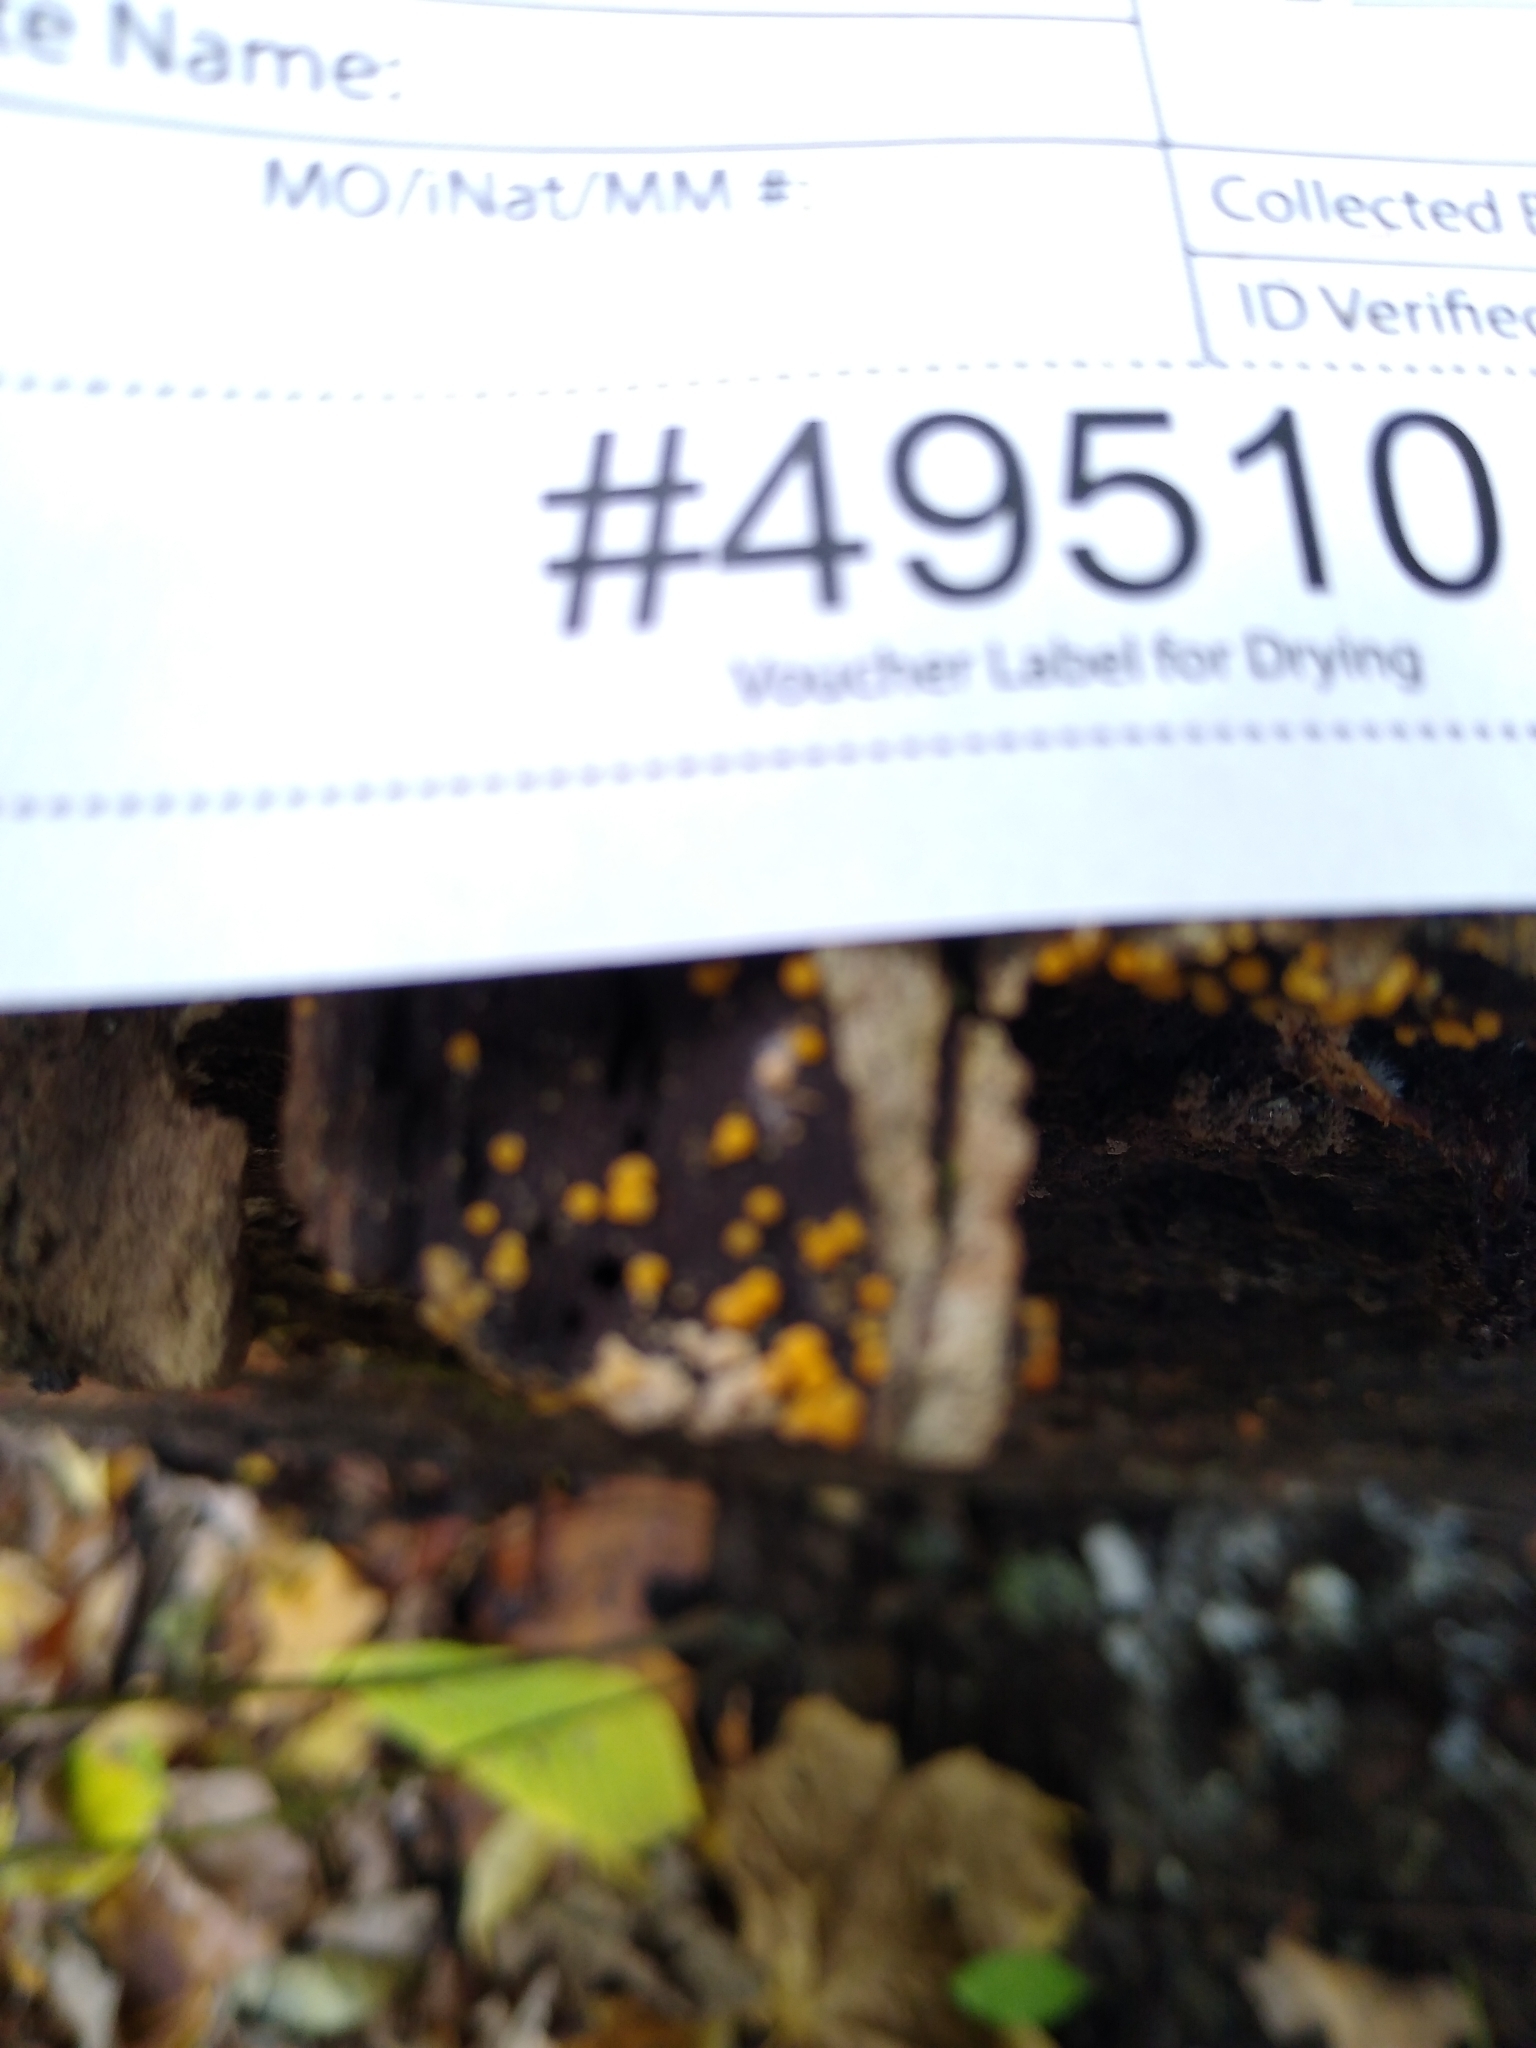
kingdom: Fungi
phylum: Ascomycota
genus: Bactridium
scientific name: Bactridium flavum
